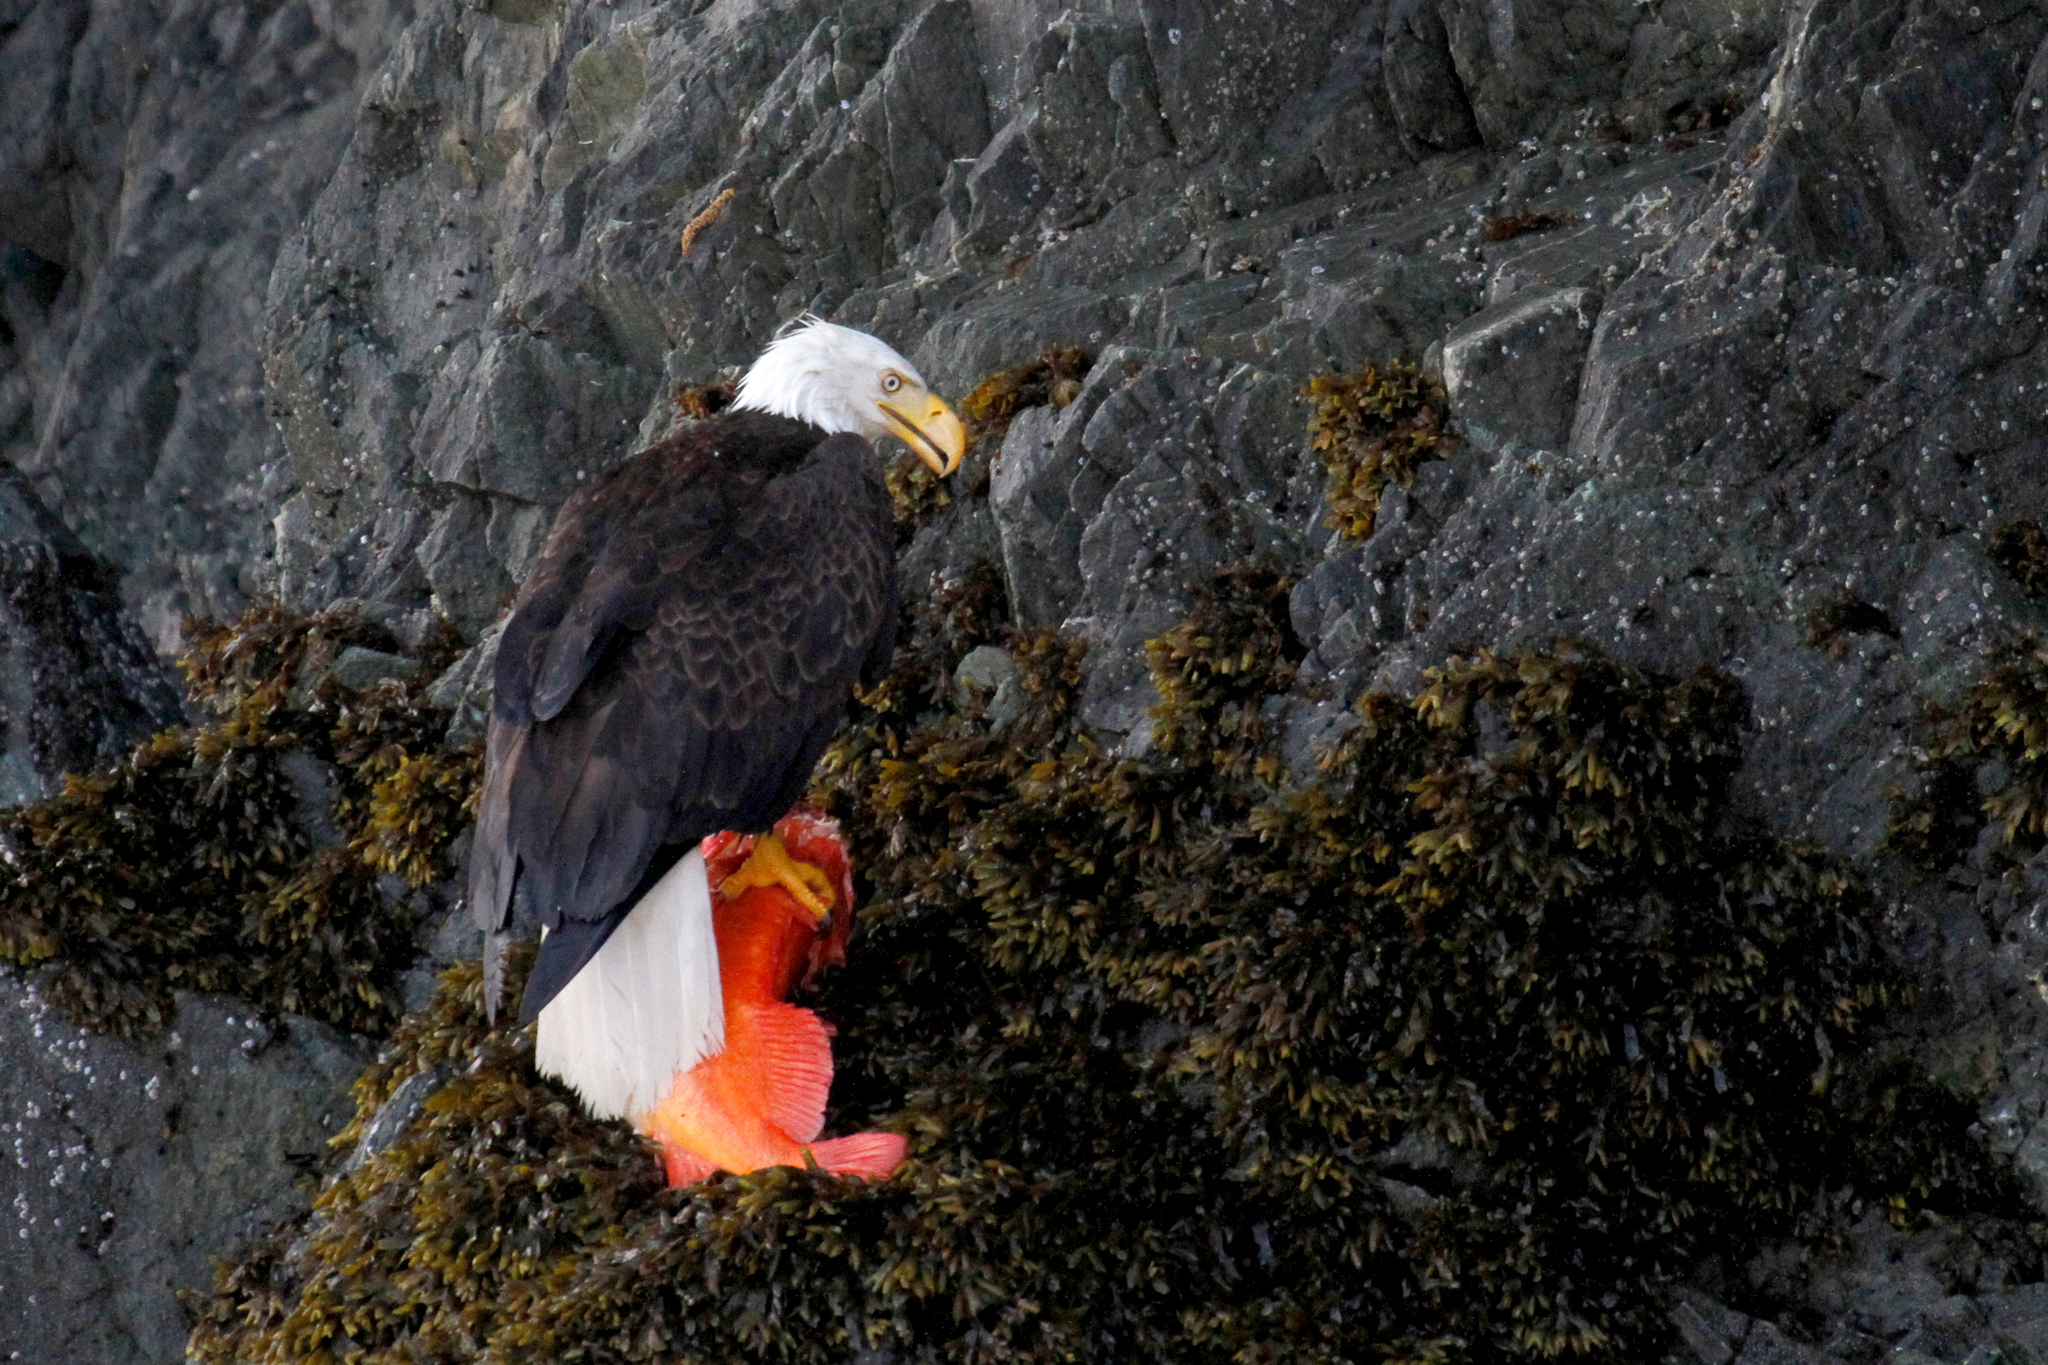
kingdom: Animalia
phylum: Chordata
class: Aves
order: Accipitriformes
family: Accipitridae
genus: Haliaeetus
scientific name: Haliaeetus leucocephalus
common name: Bald eagle
